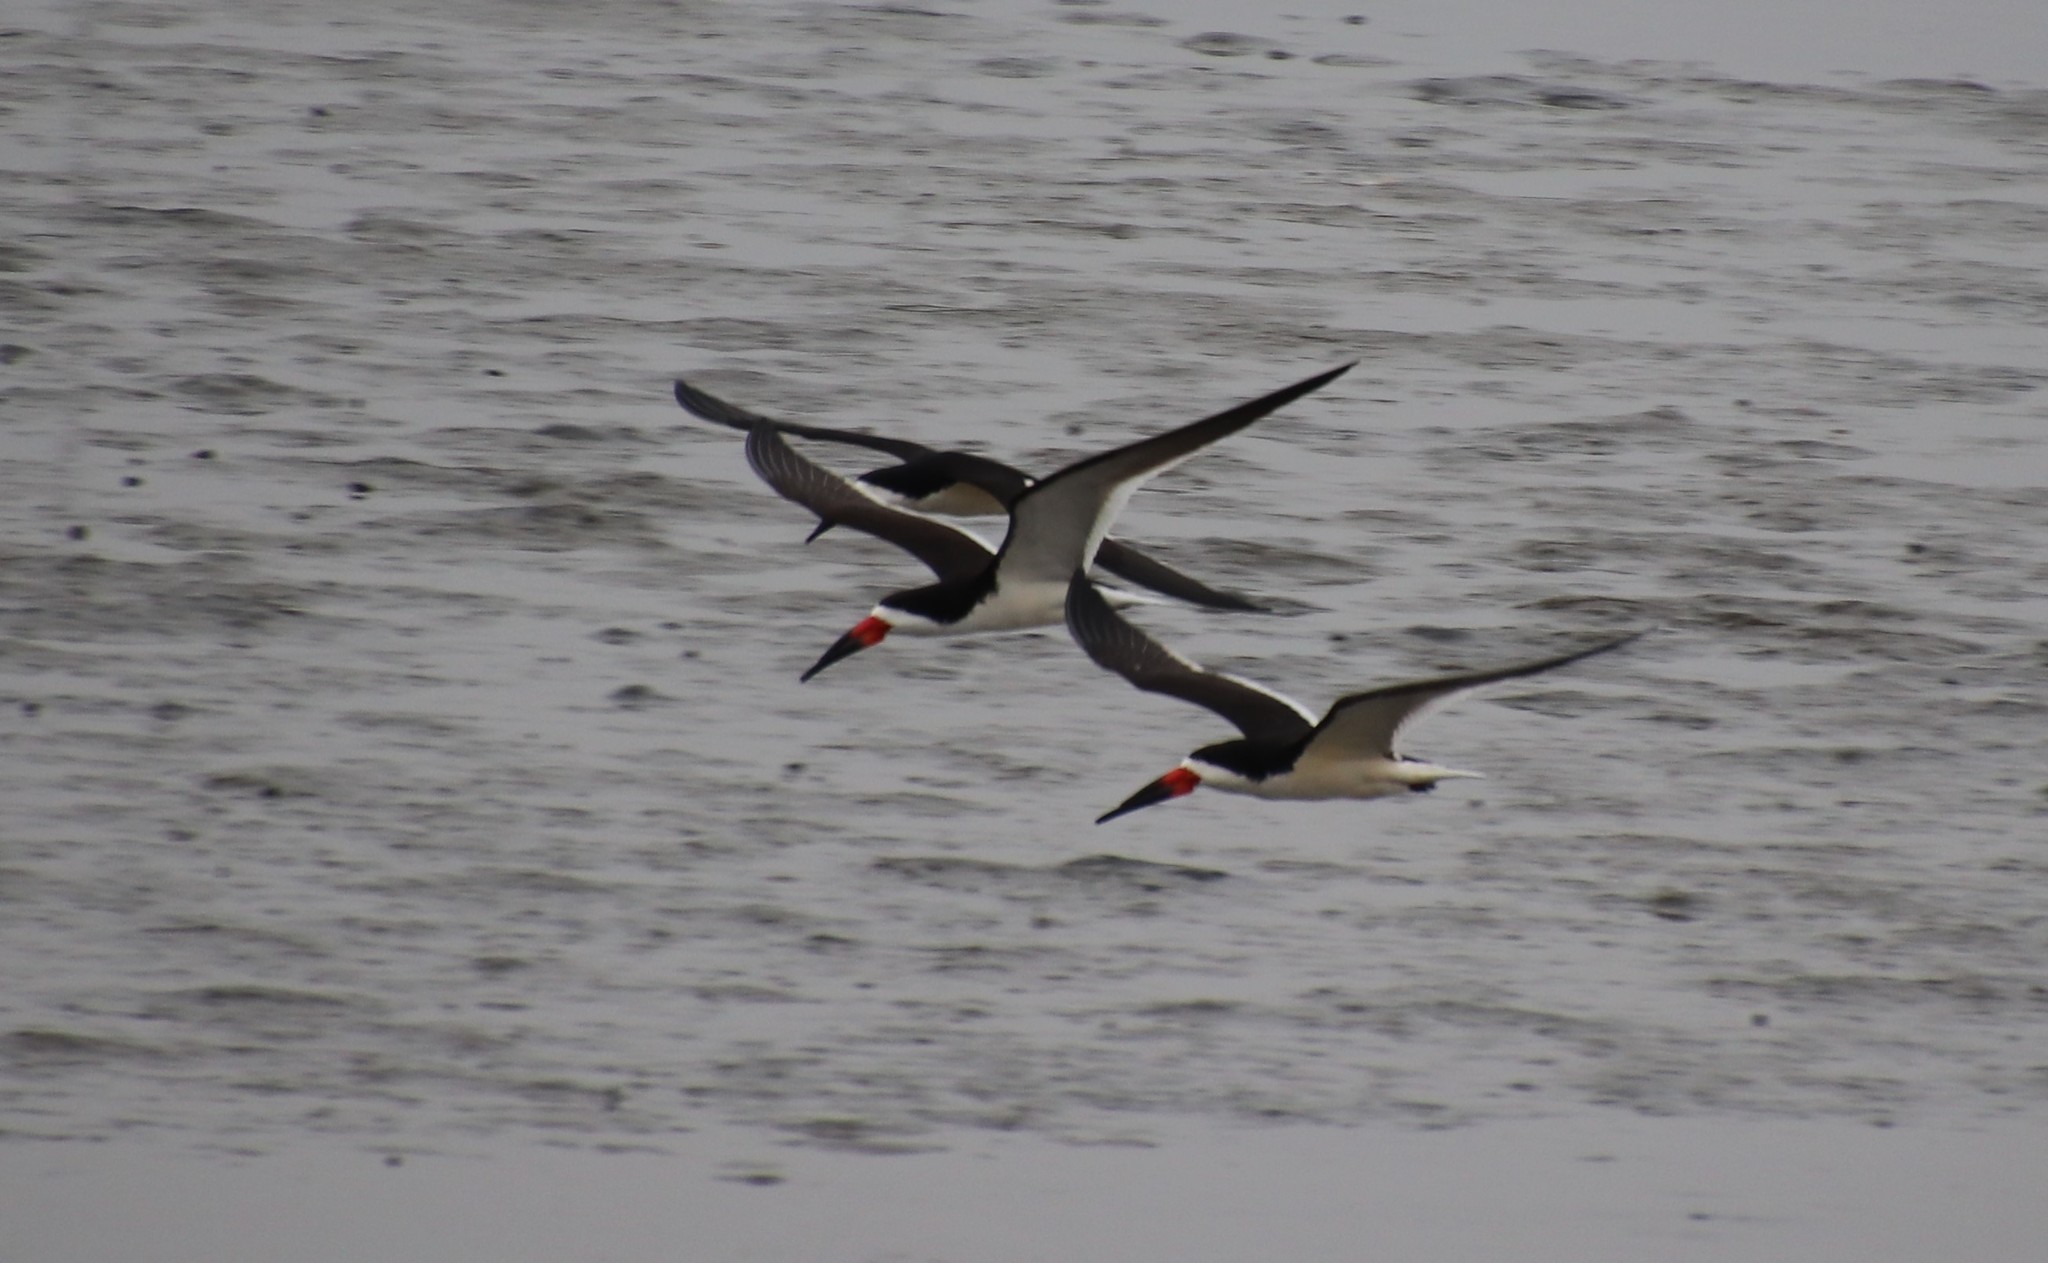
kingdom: Animalia
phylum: Chordata
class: Aves
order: Charadriiformes
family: Laridae
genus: Rynchops
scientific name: Rynchops niger
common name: Black skimmer
